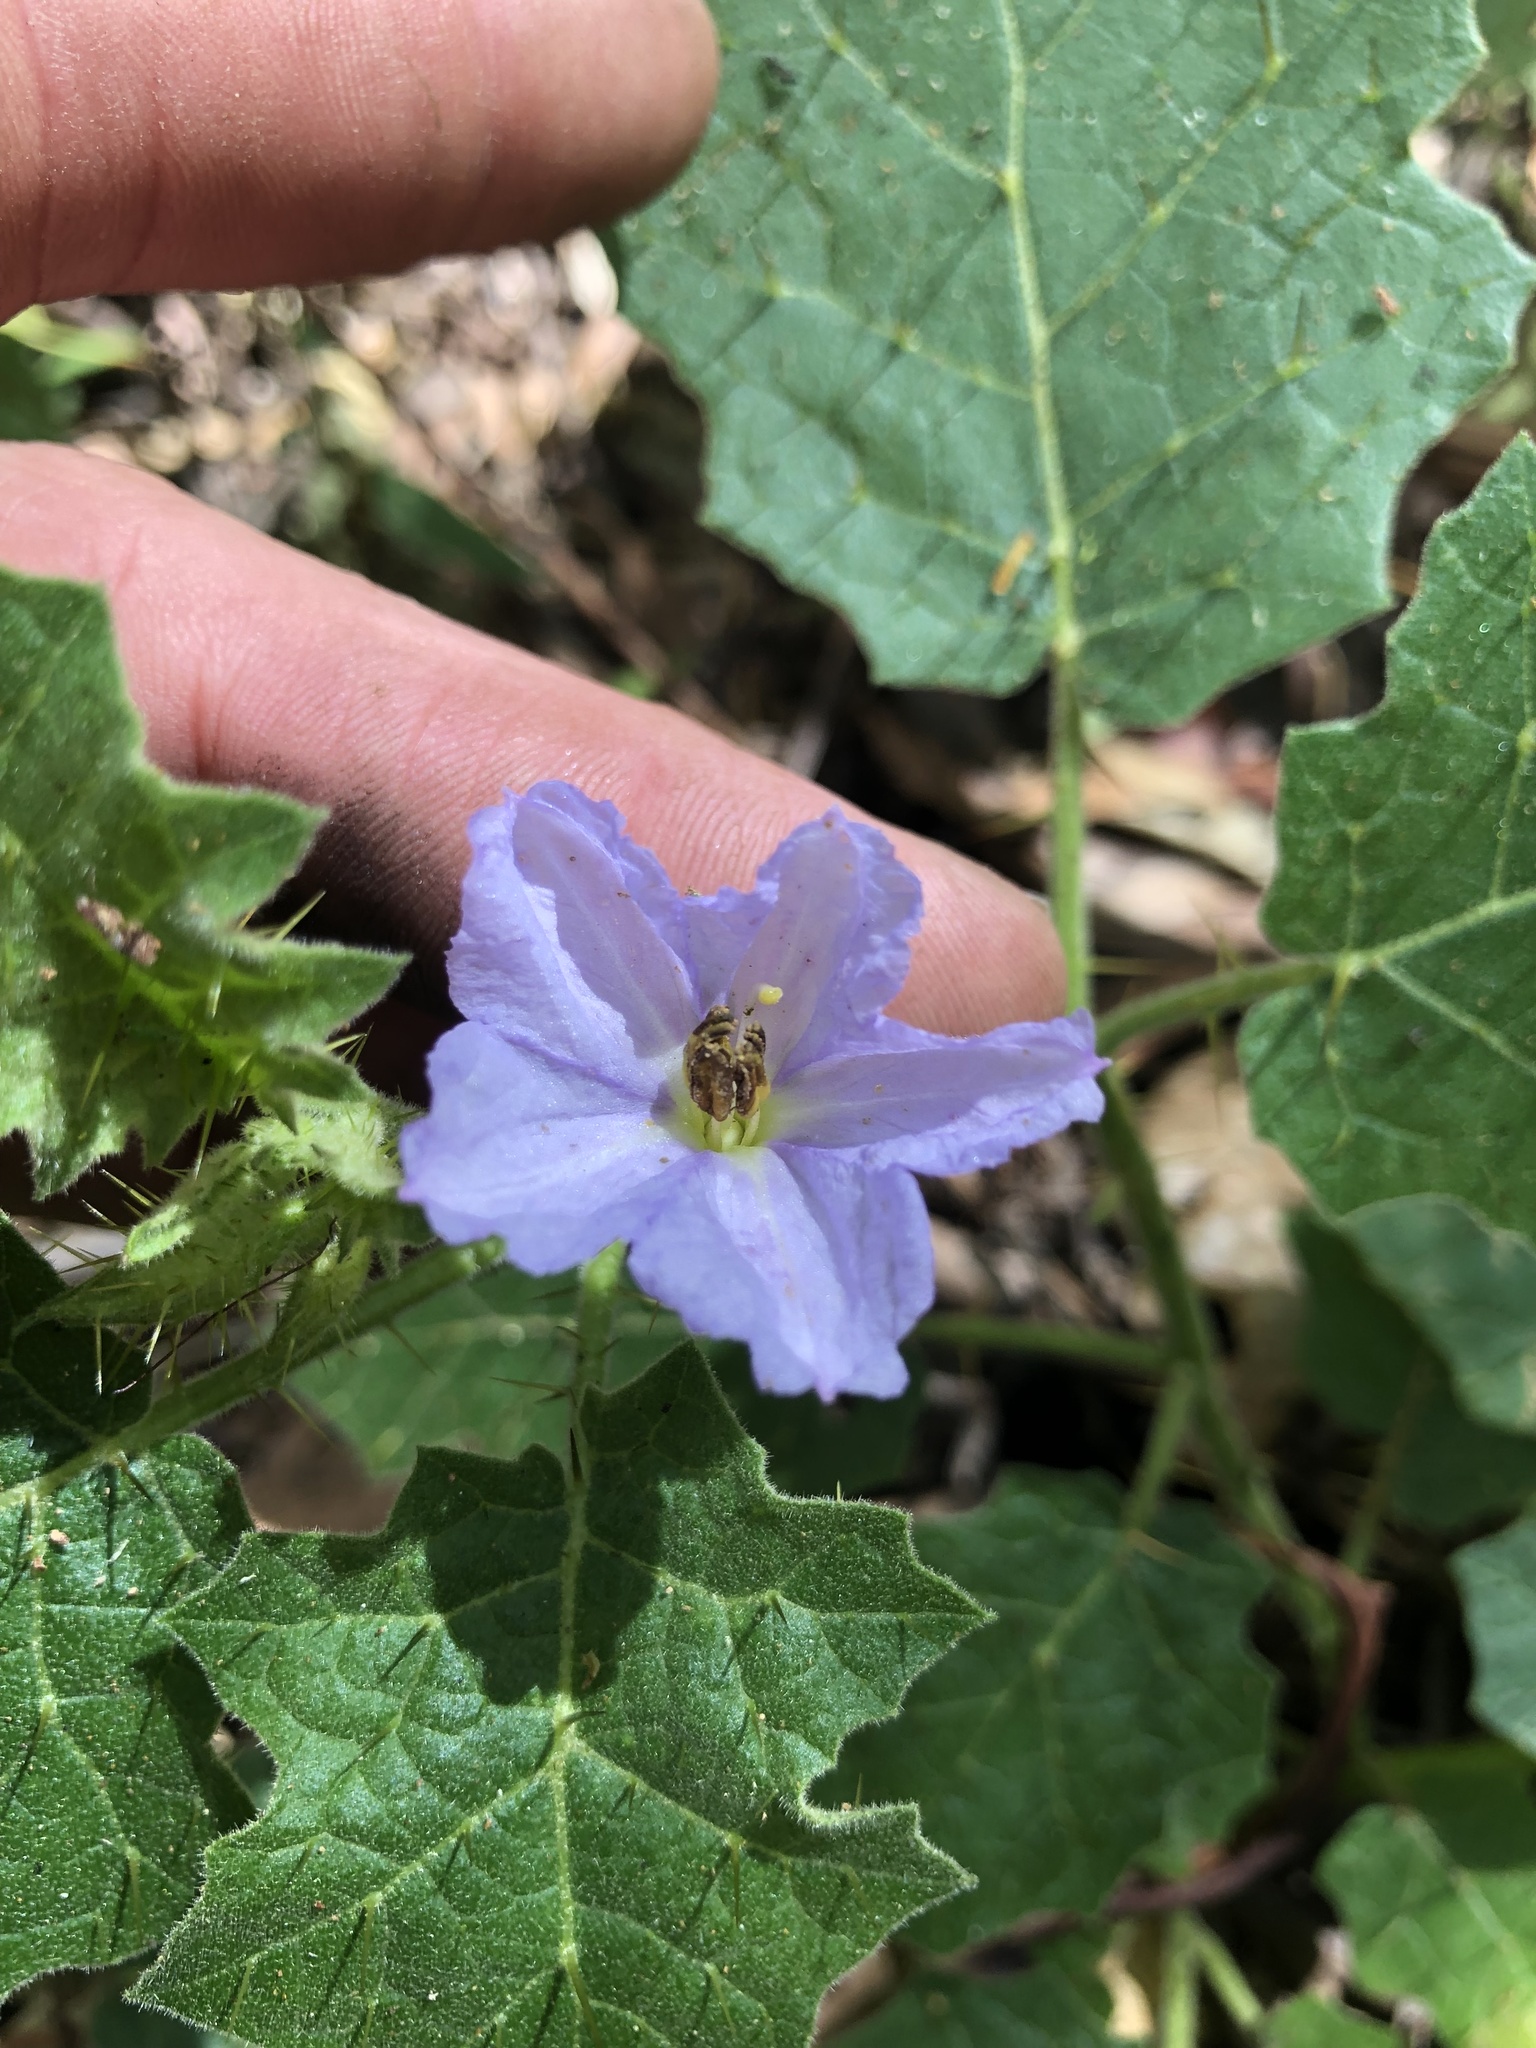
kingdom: Plantae
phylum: Tracheophyta
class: Magnoliopsida
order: Solanales
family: Solanaceae
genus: Solanum
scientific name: Solanum ditrichum
